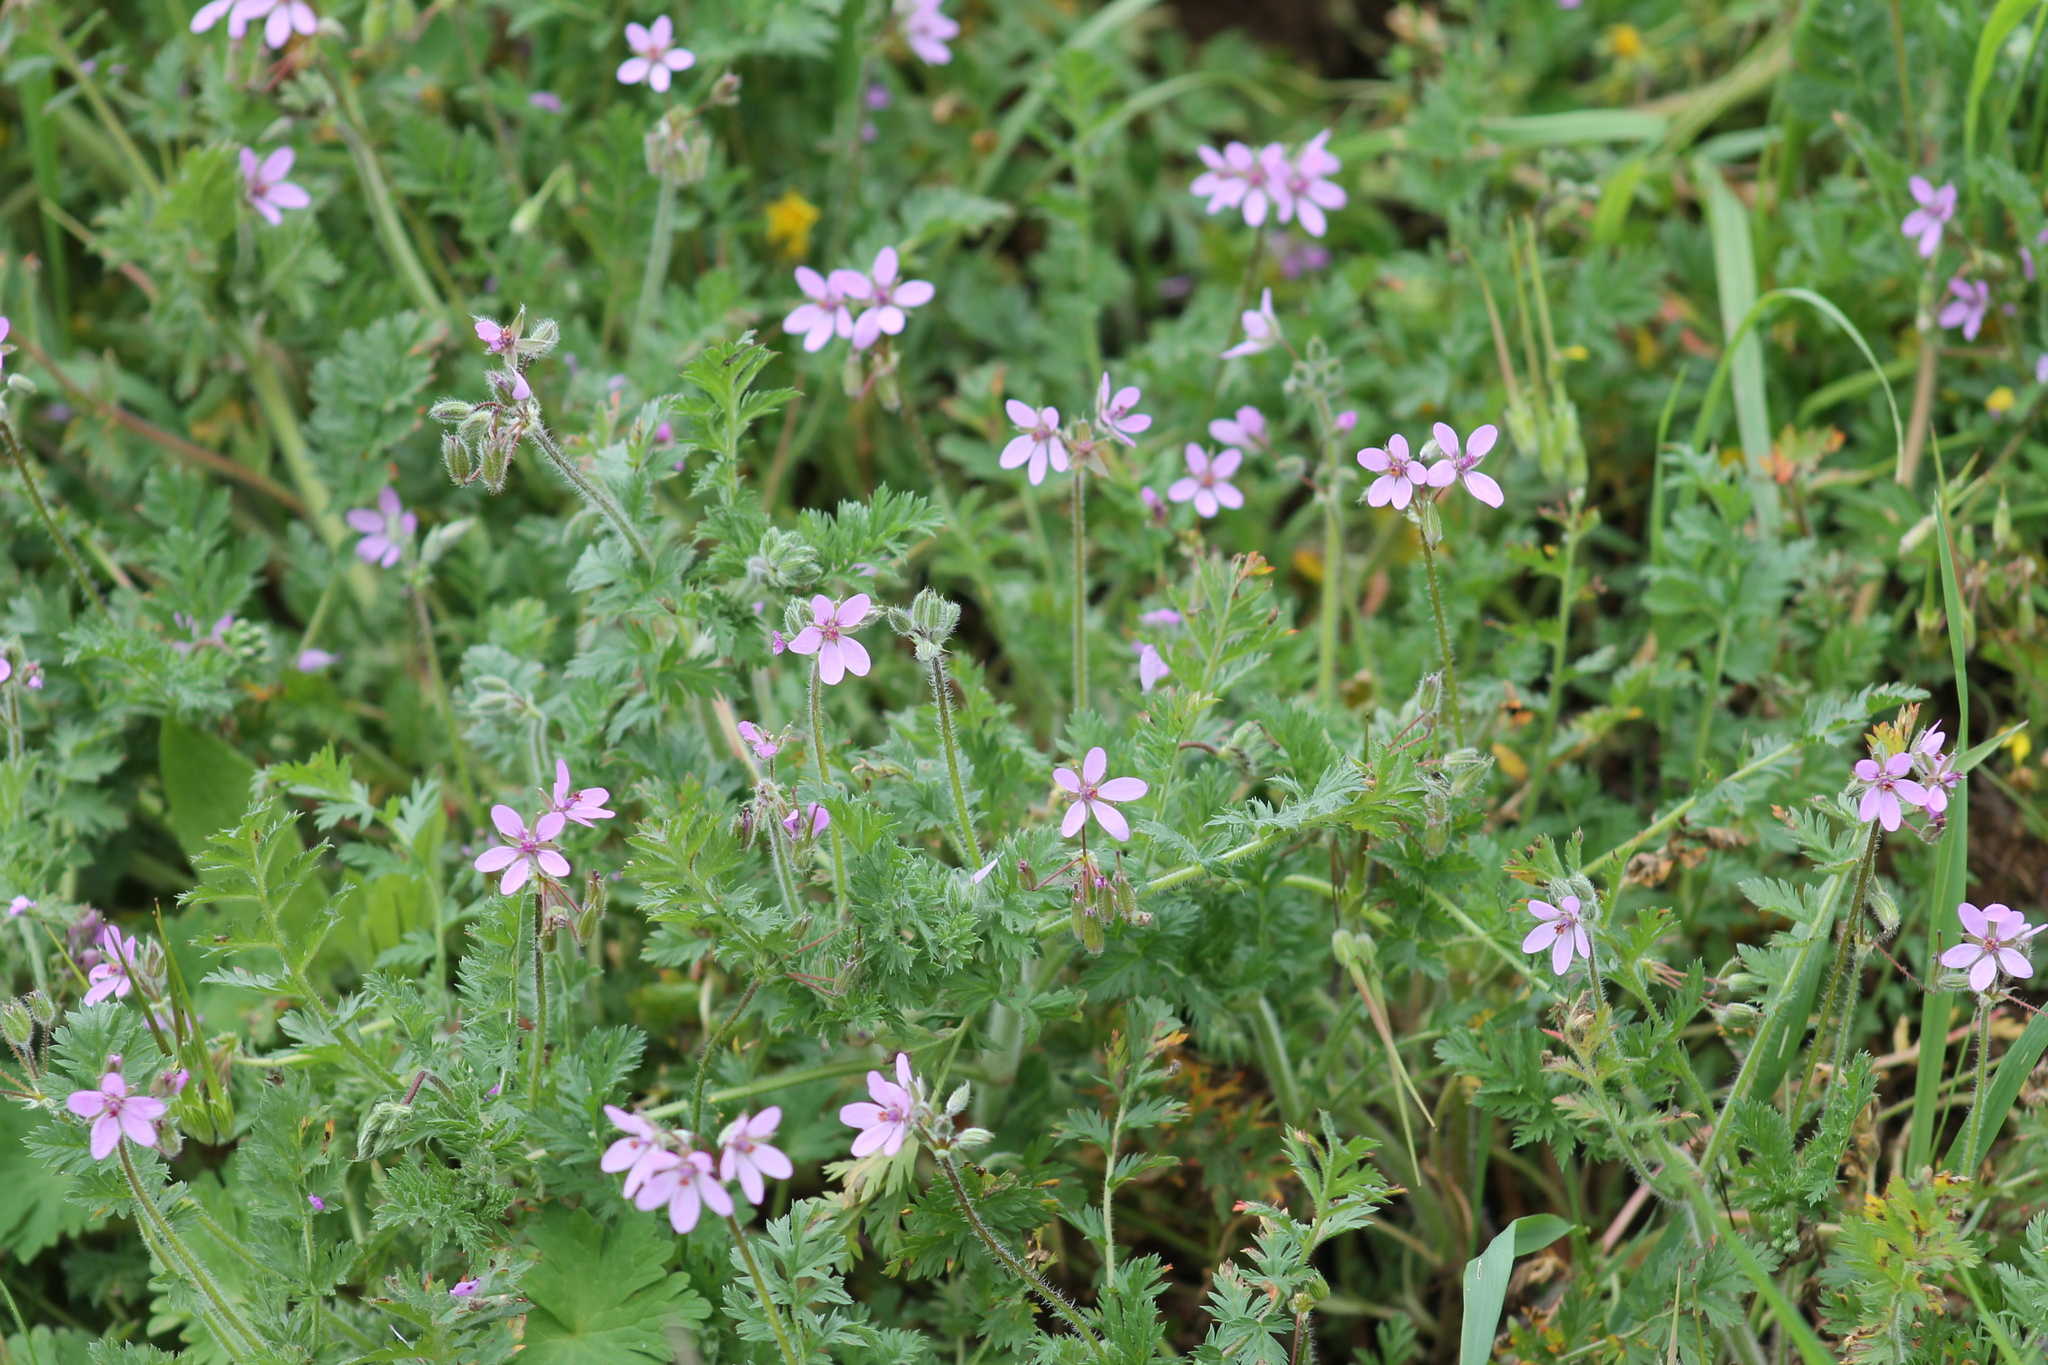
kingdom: Plantae
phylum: Tracheophyta
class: Magnoliopsida
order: Geraniales
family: Geraniaceae
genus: Erodium
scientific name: Erodium cicutarium
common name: Common stork's-bill
